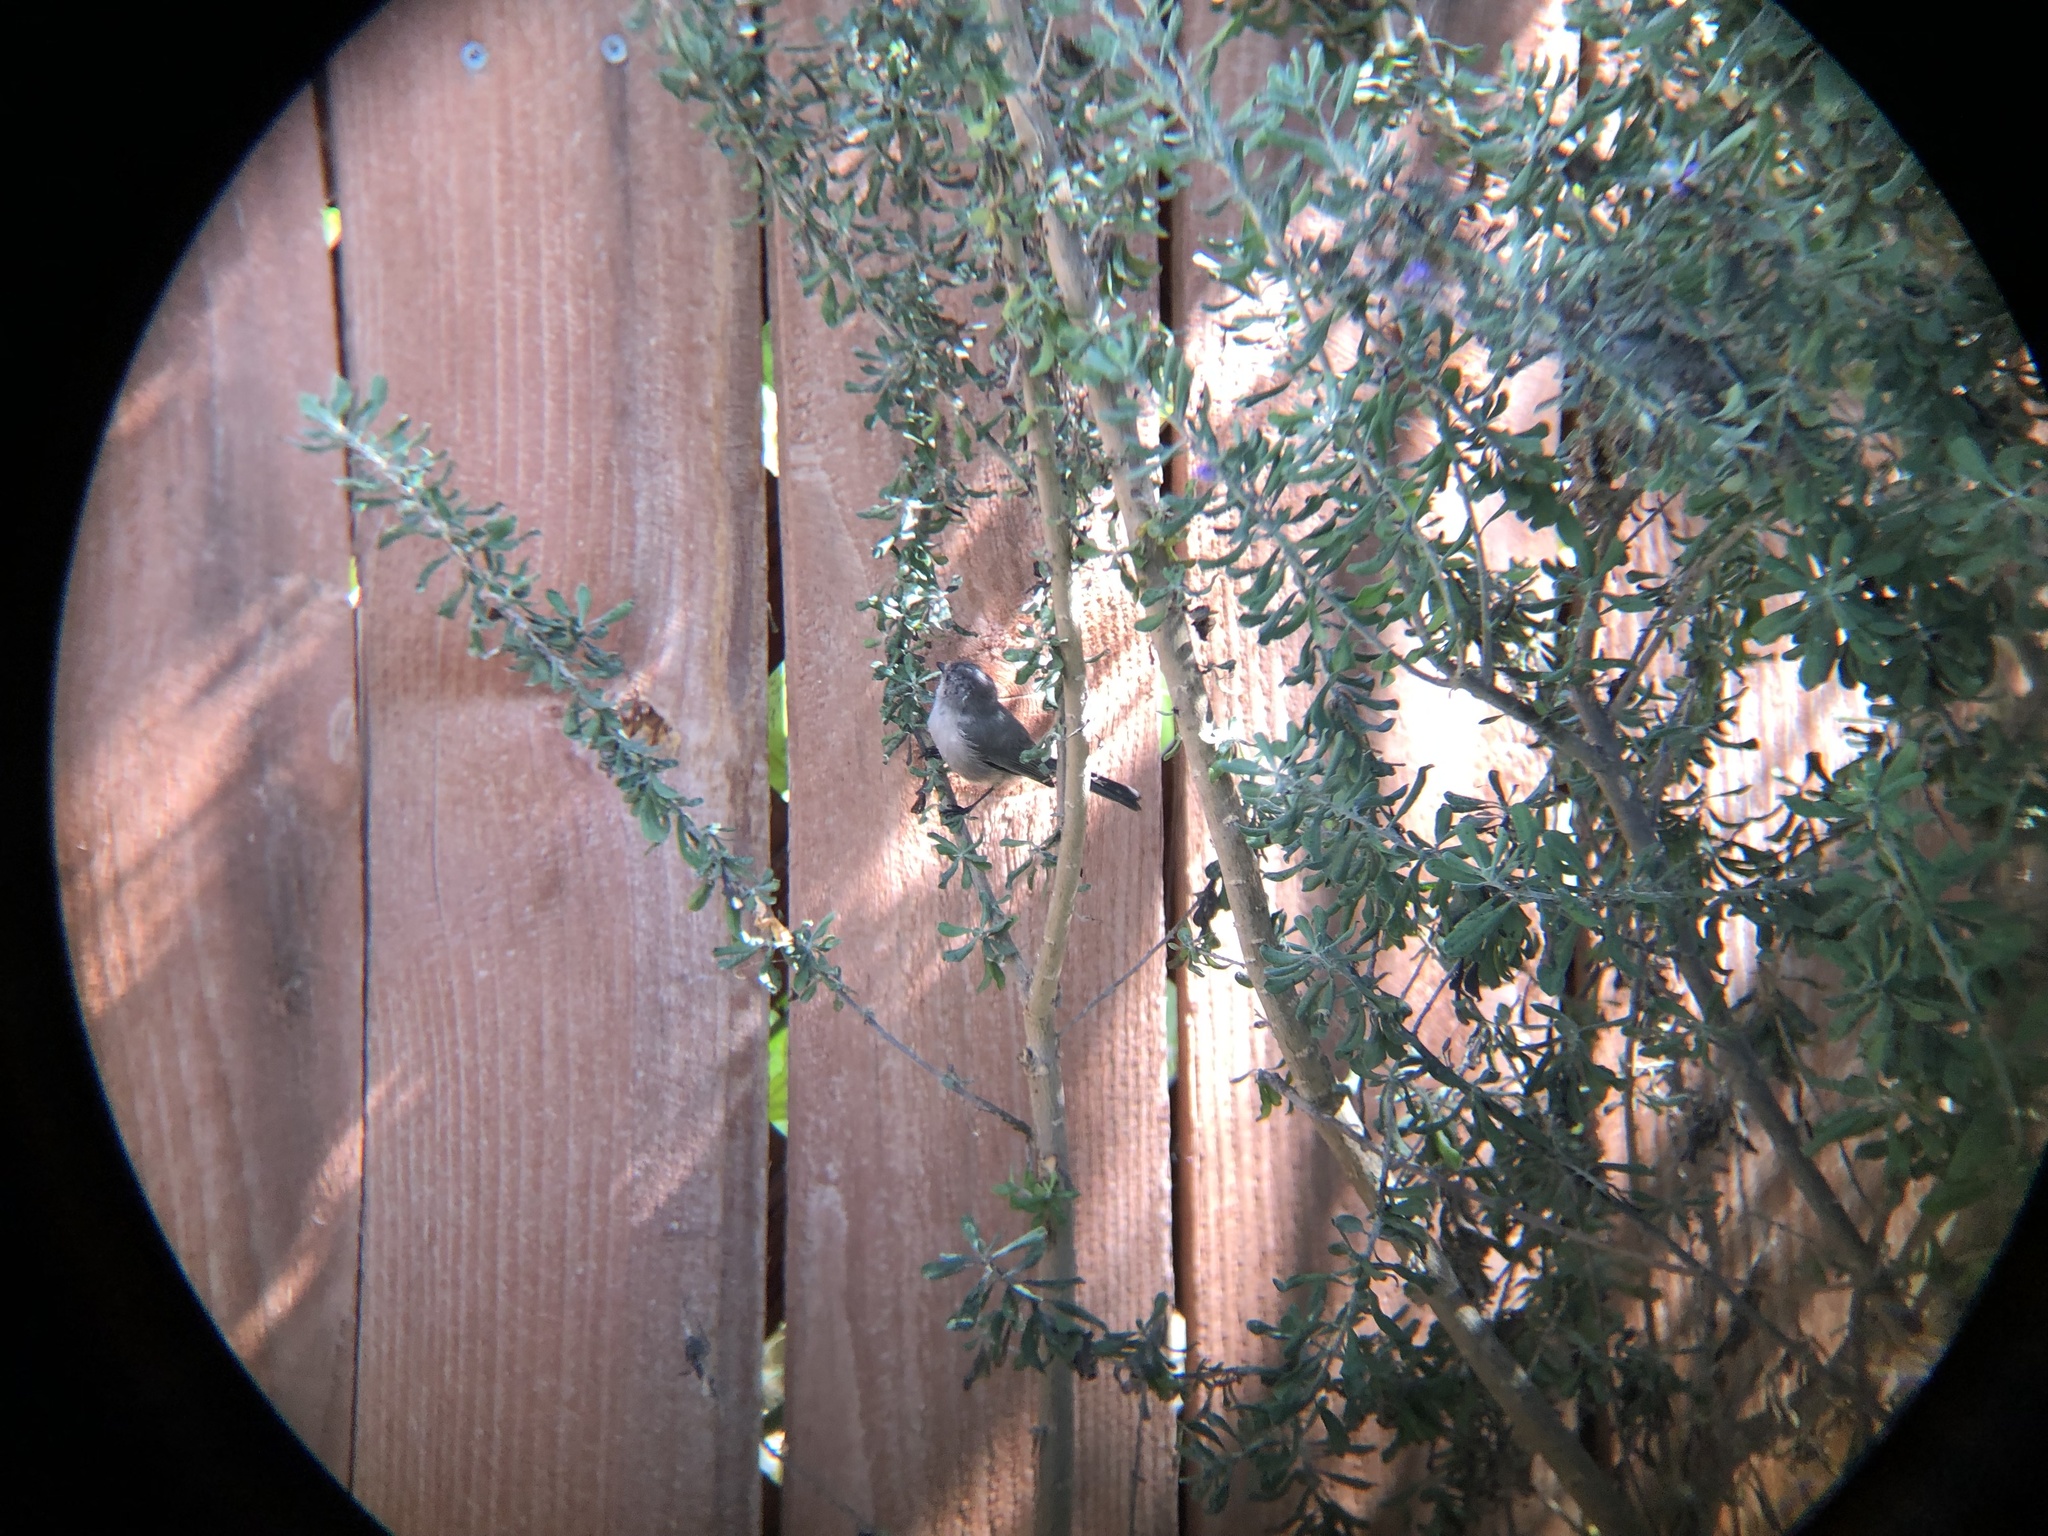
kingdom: Animalia
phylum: Chordata
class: Aves
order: Passeriformes
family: Aegithalidae
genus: Psaltriparus
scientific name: Psaltriparus minimus
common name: American bushtit
